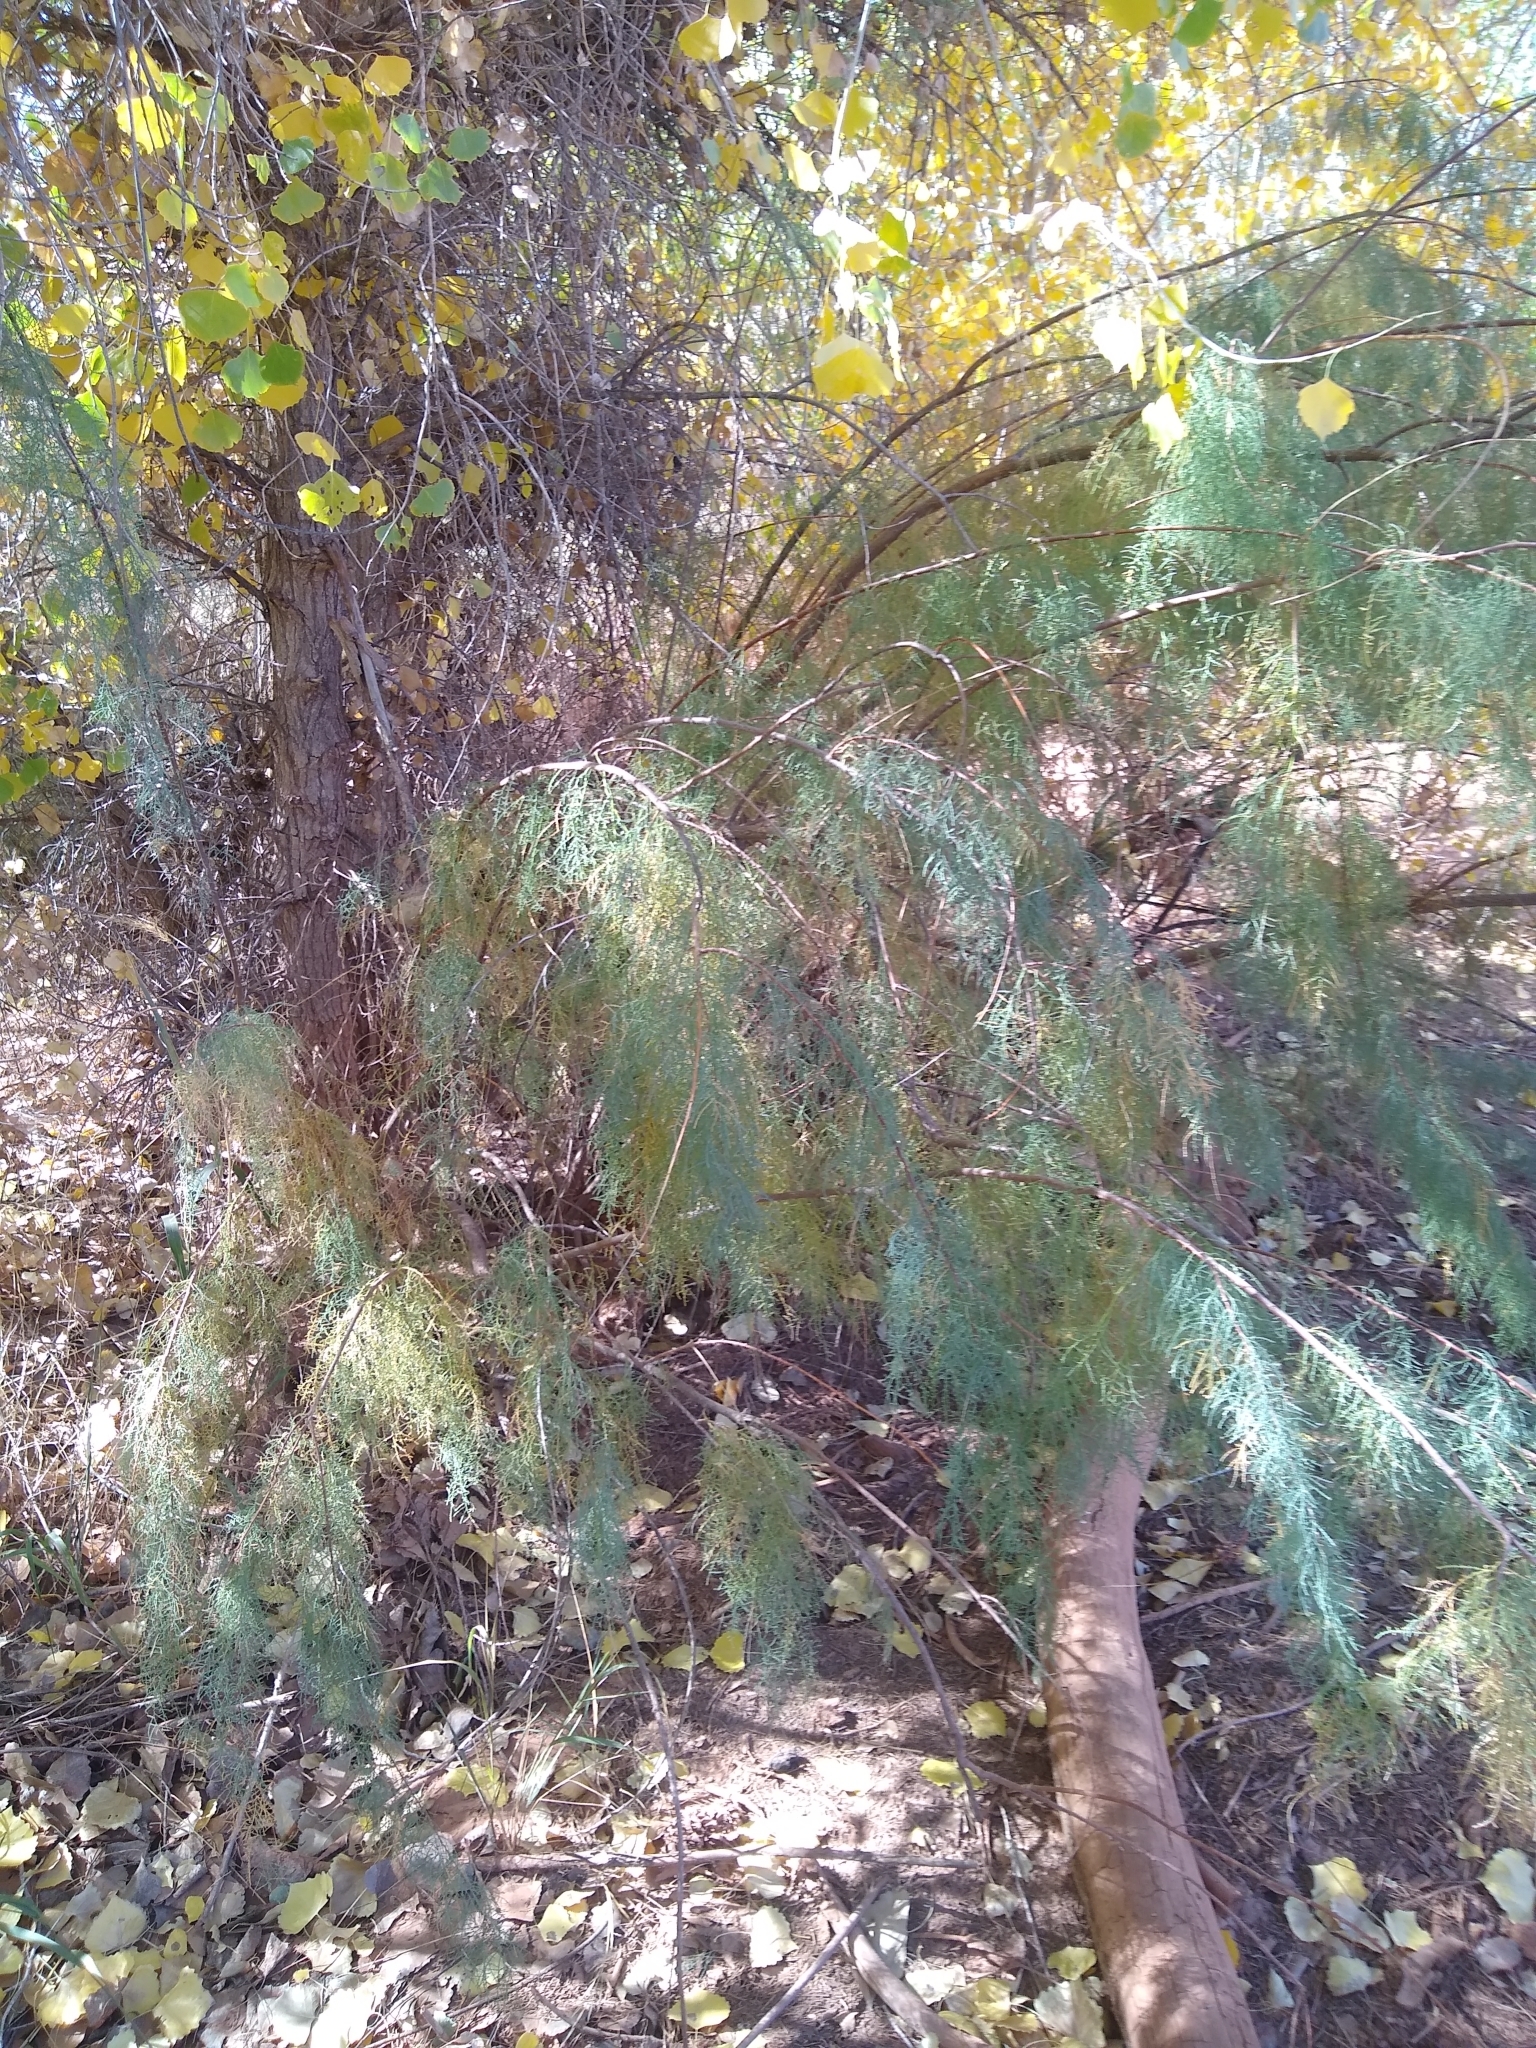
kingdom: Plantae
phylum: Tracheophyta
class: Magnoliopsida
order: Caryophyllales
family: Tamaricaceae
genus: Tamarix
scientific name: Tamarix ramosissima
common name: Pink tamarisk
